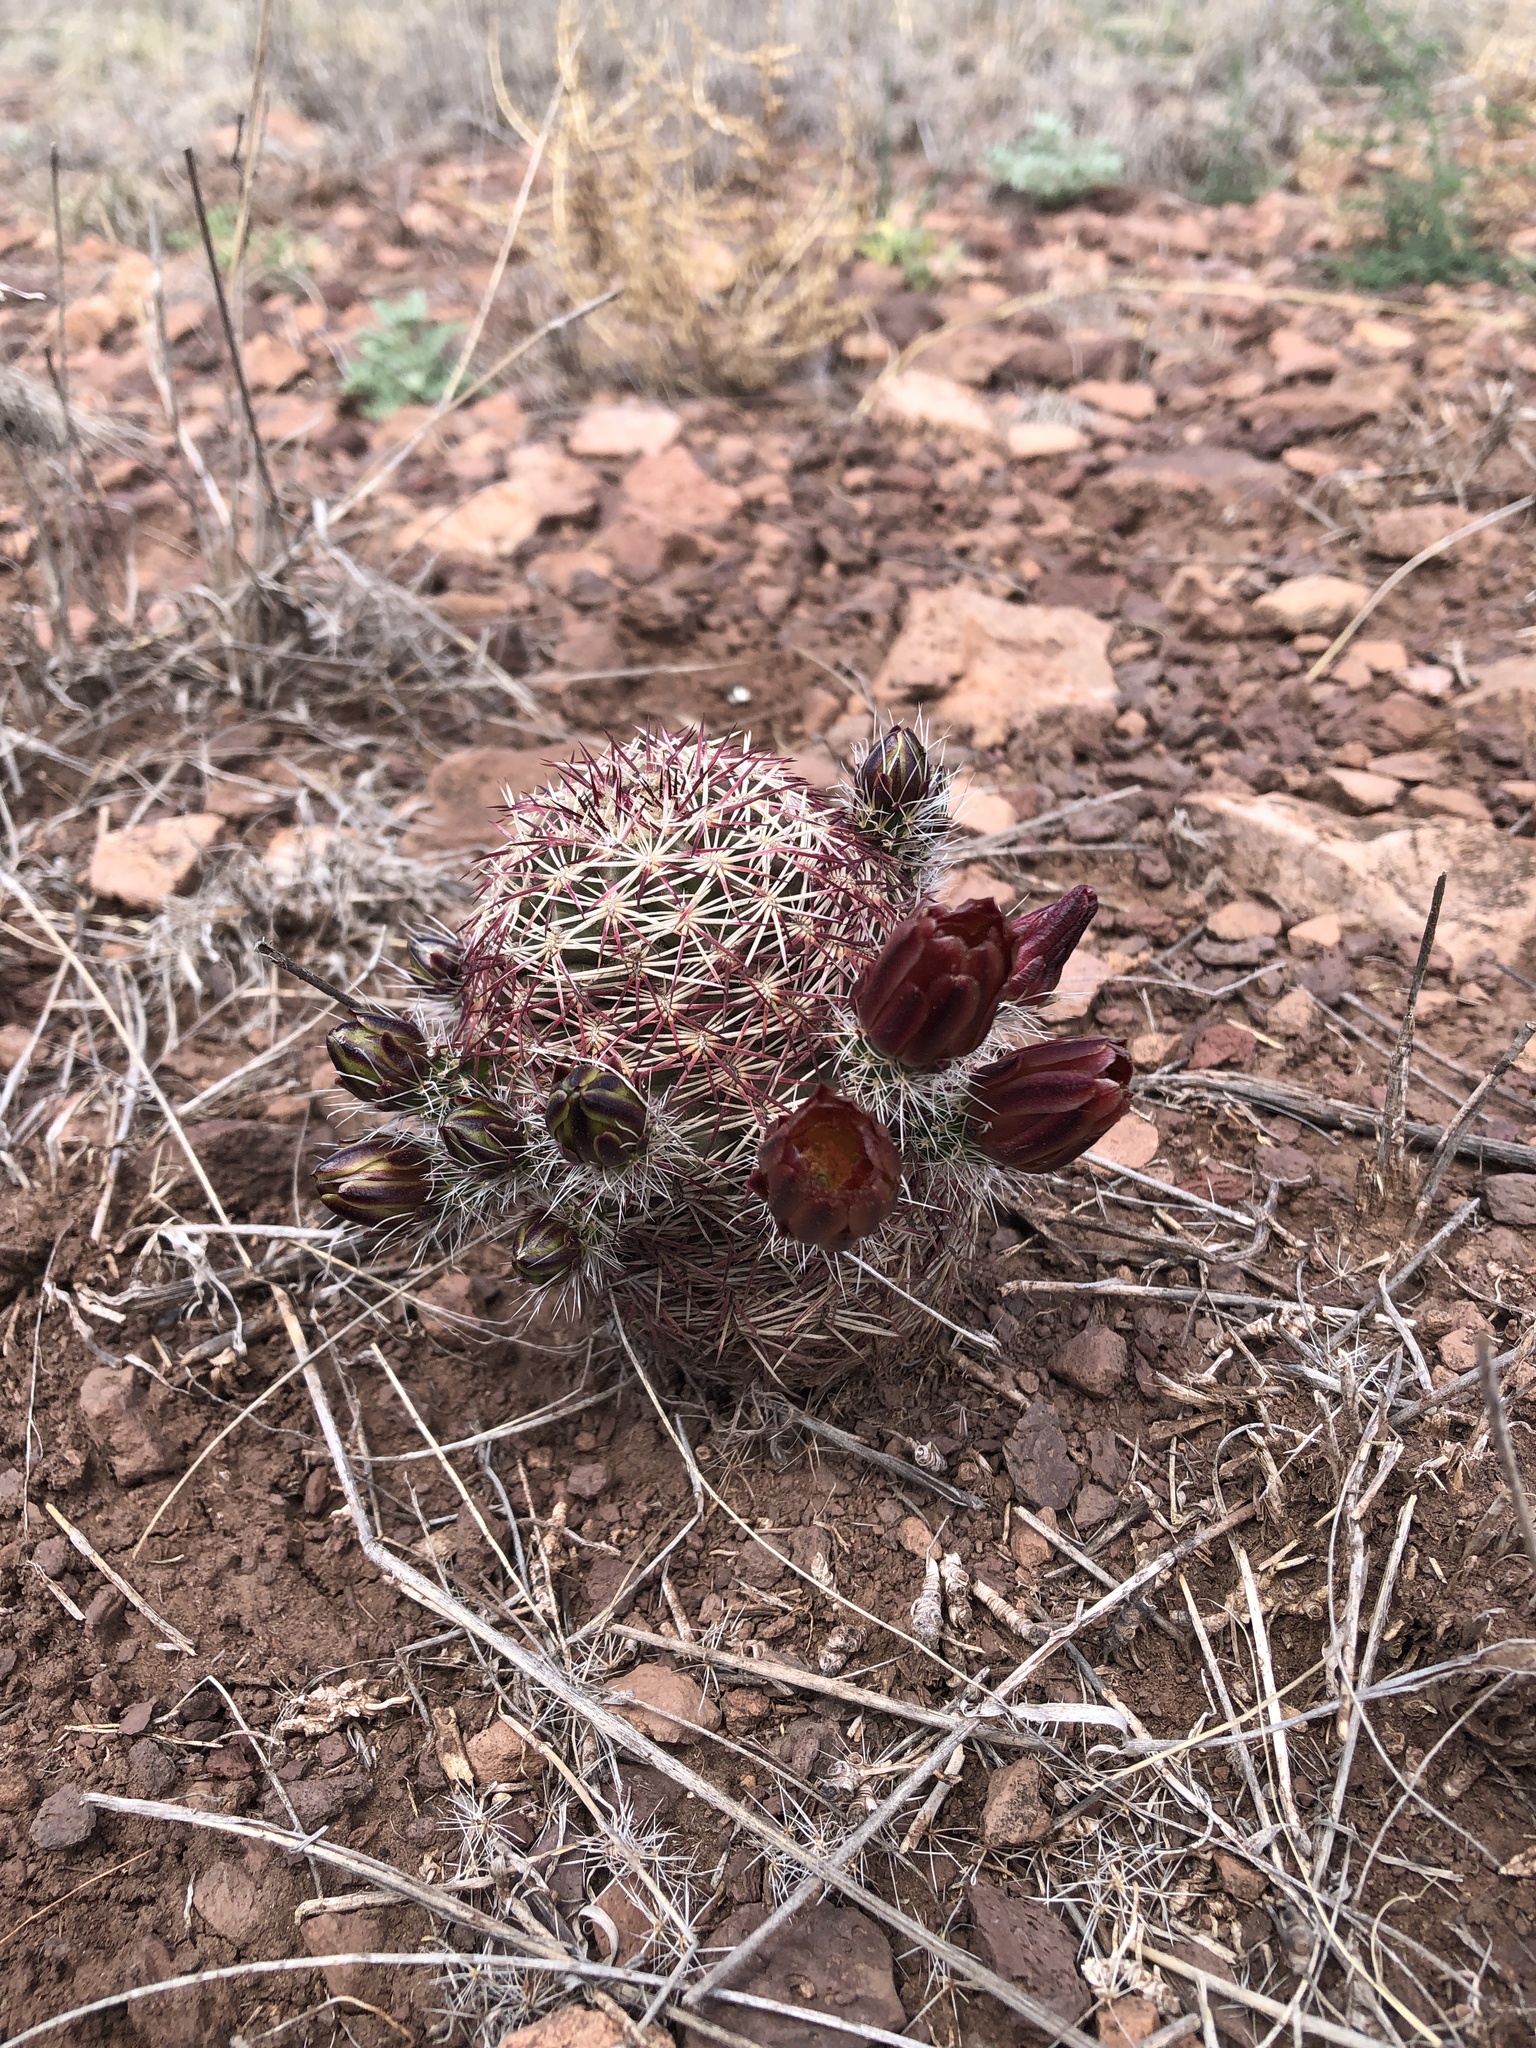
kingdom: Plantae
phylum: Tracheophyta
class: Magnoliopsida
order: Caryophyllales
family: Cactaceae
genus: Echinocereus
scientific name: Echinocereus viridiflorus
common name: Nylon hedgehog cactus
